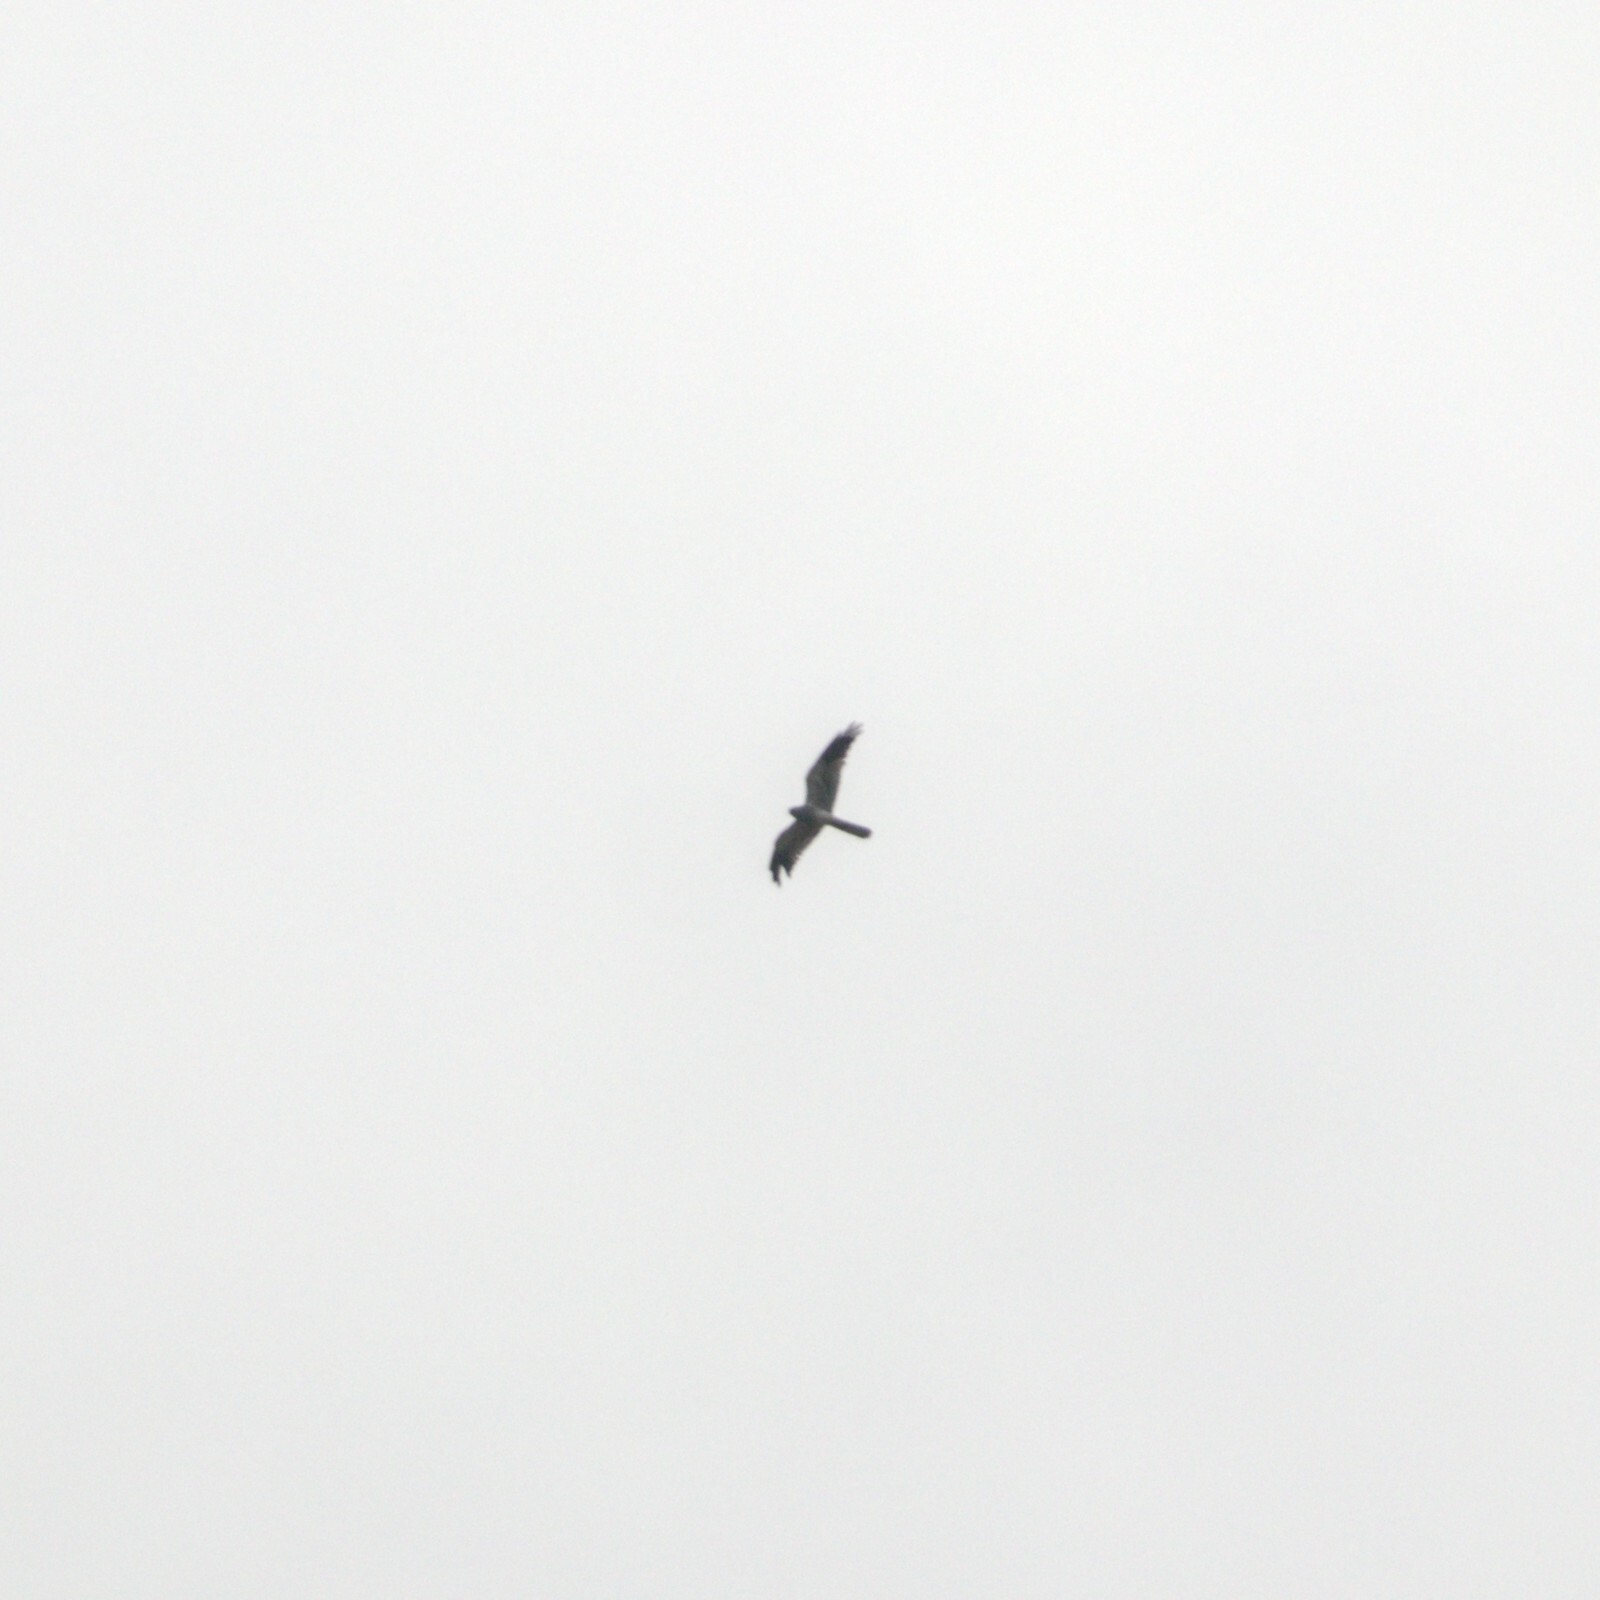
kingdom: Animalia
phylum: Chordata
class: Aves
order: Accipitriformes
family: Accipitridae
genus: Circus
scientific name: Circus pygargus
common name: Montagu's harrier
